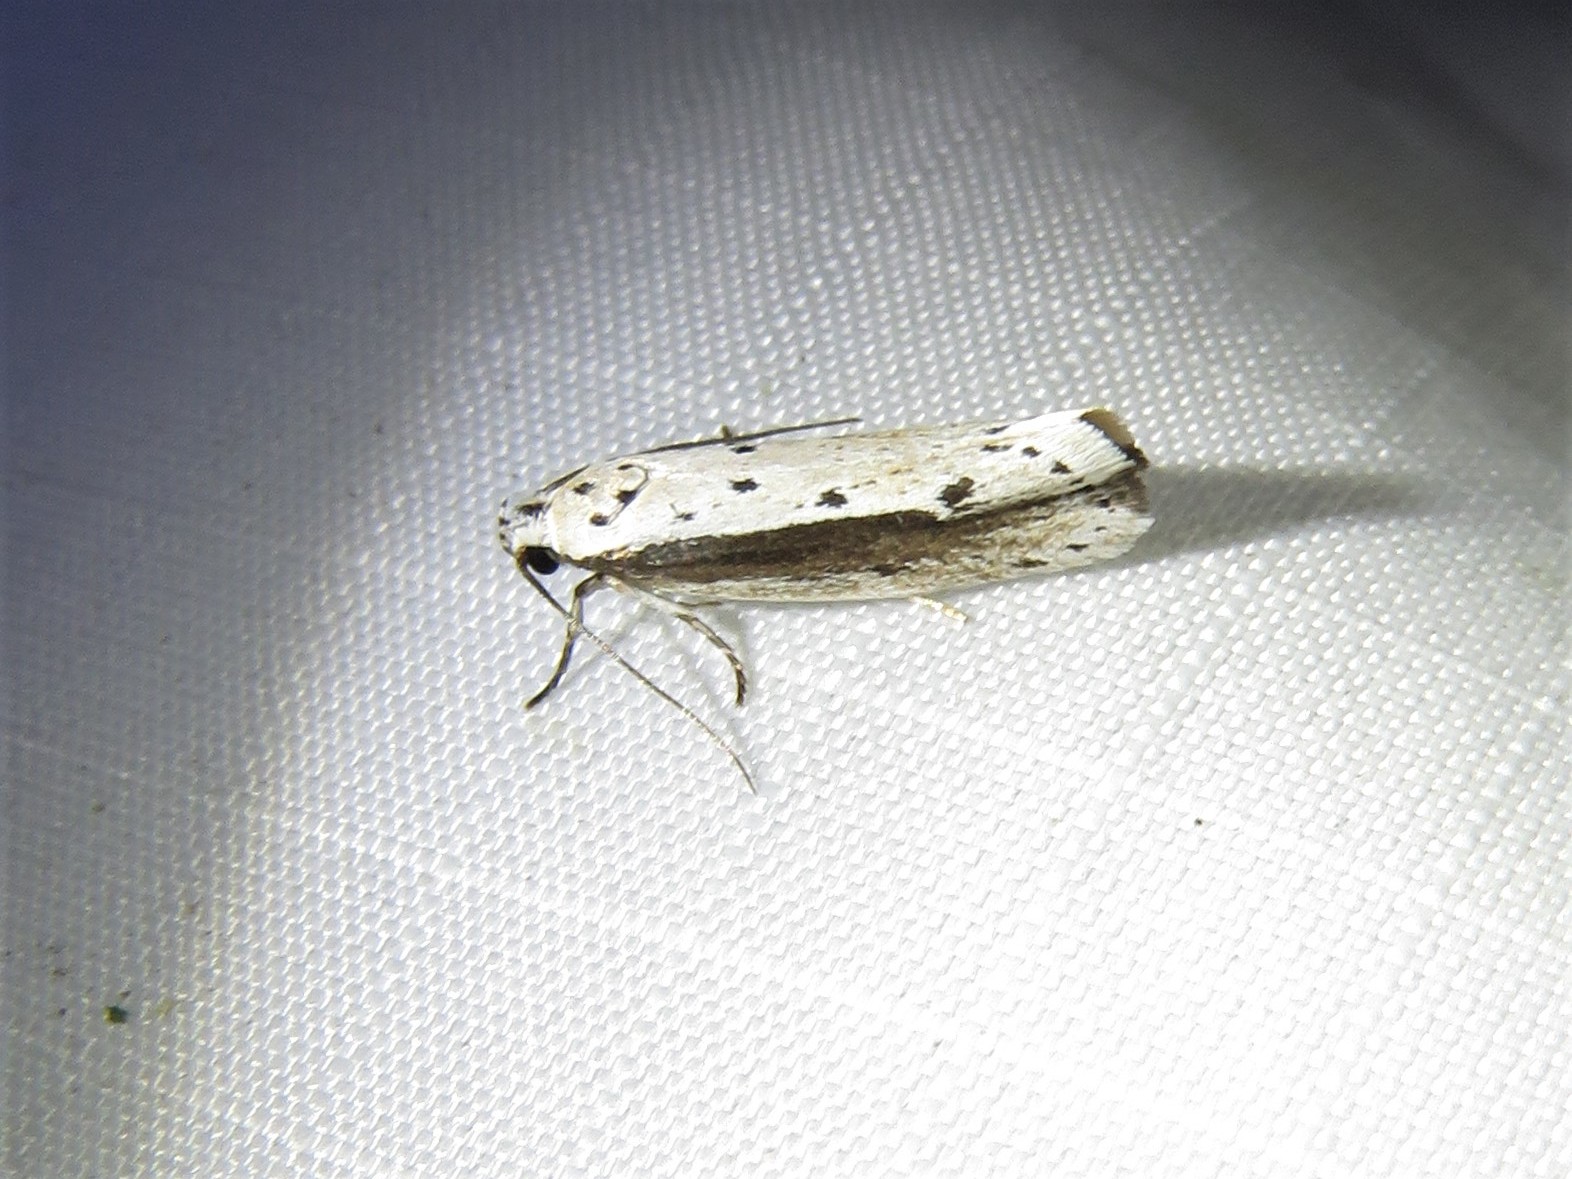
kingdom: Animalia
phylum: Arthropoda
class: Insecta
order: Lepidoptera
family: Ethmiidae
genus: Ethmia
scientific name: Ethmia mirusella
